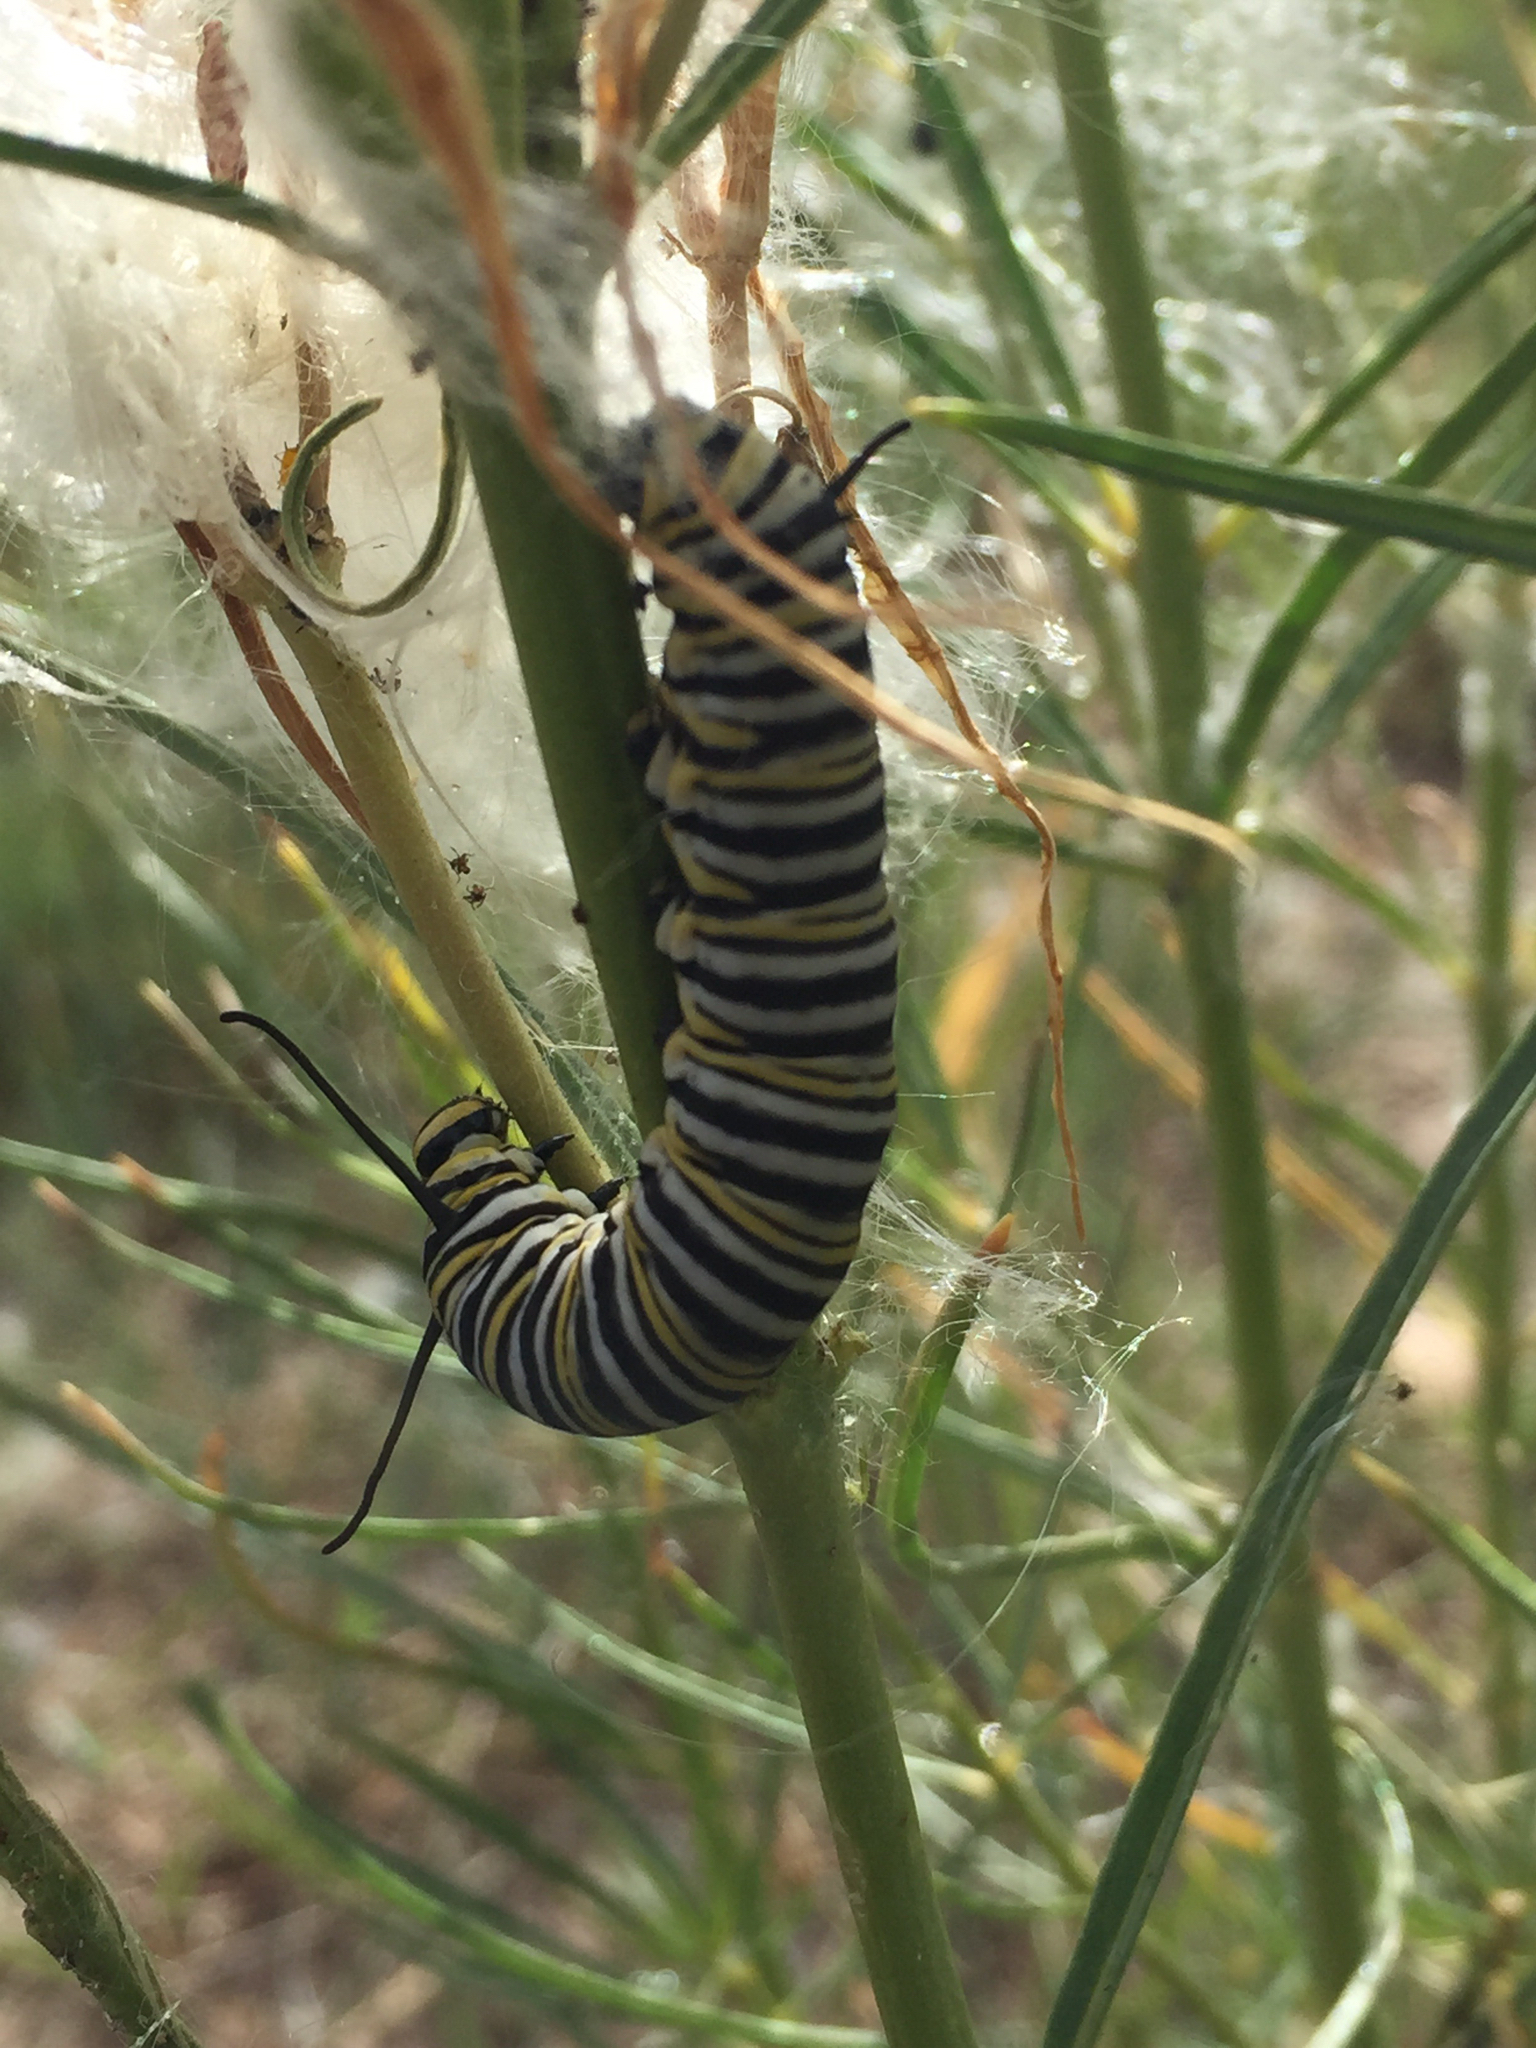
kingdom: Animalia
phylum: Arthropoda
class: Insecta
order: Lepidoptera
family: Nymphalidae
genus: Danaus
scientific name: Danaus plexippus
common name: Monarch
